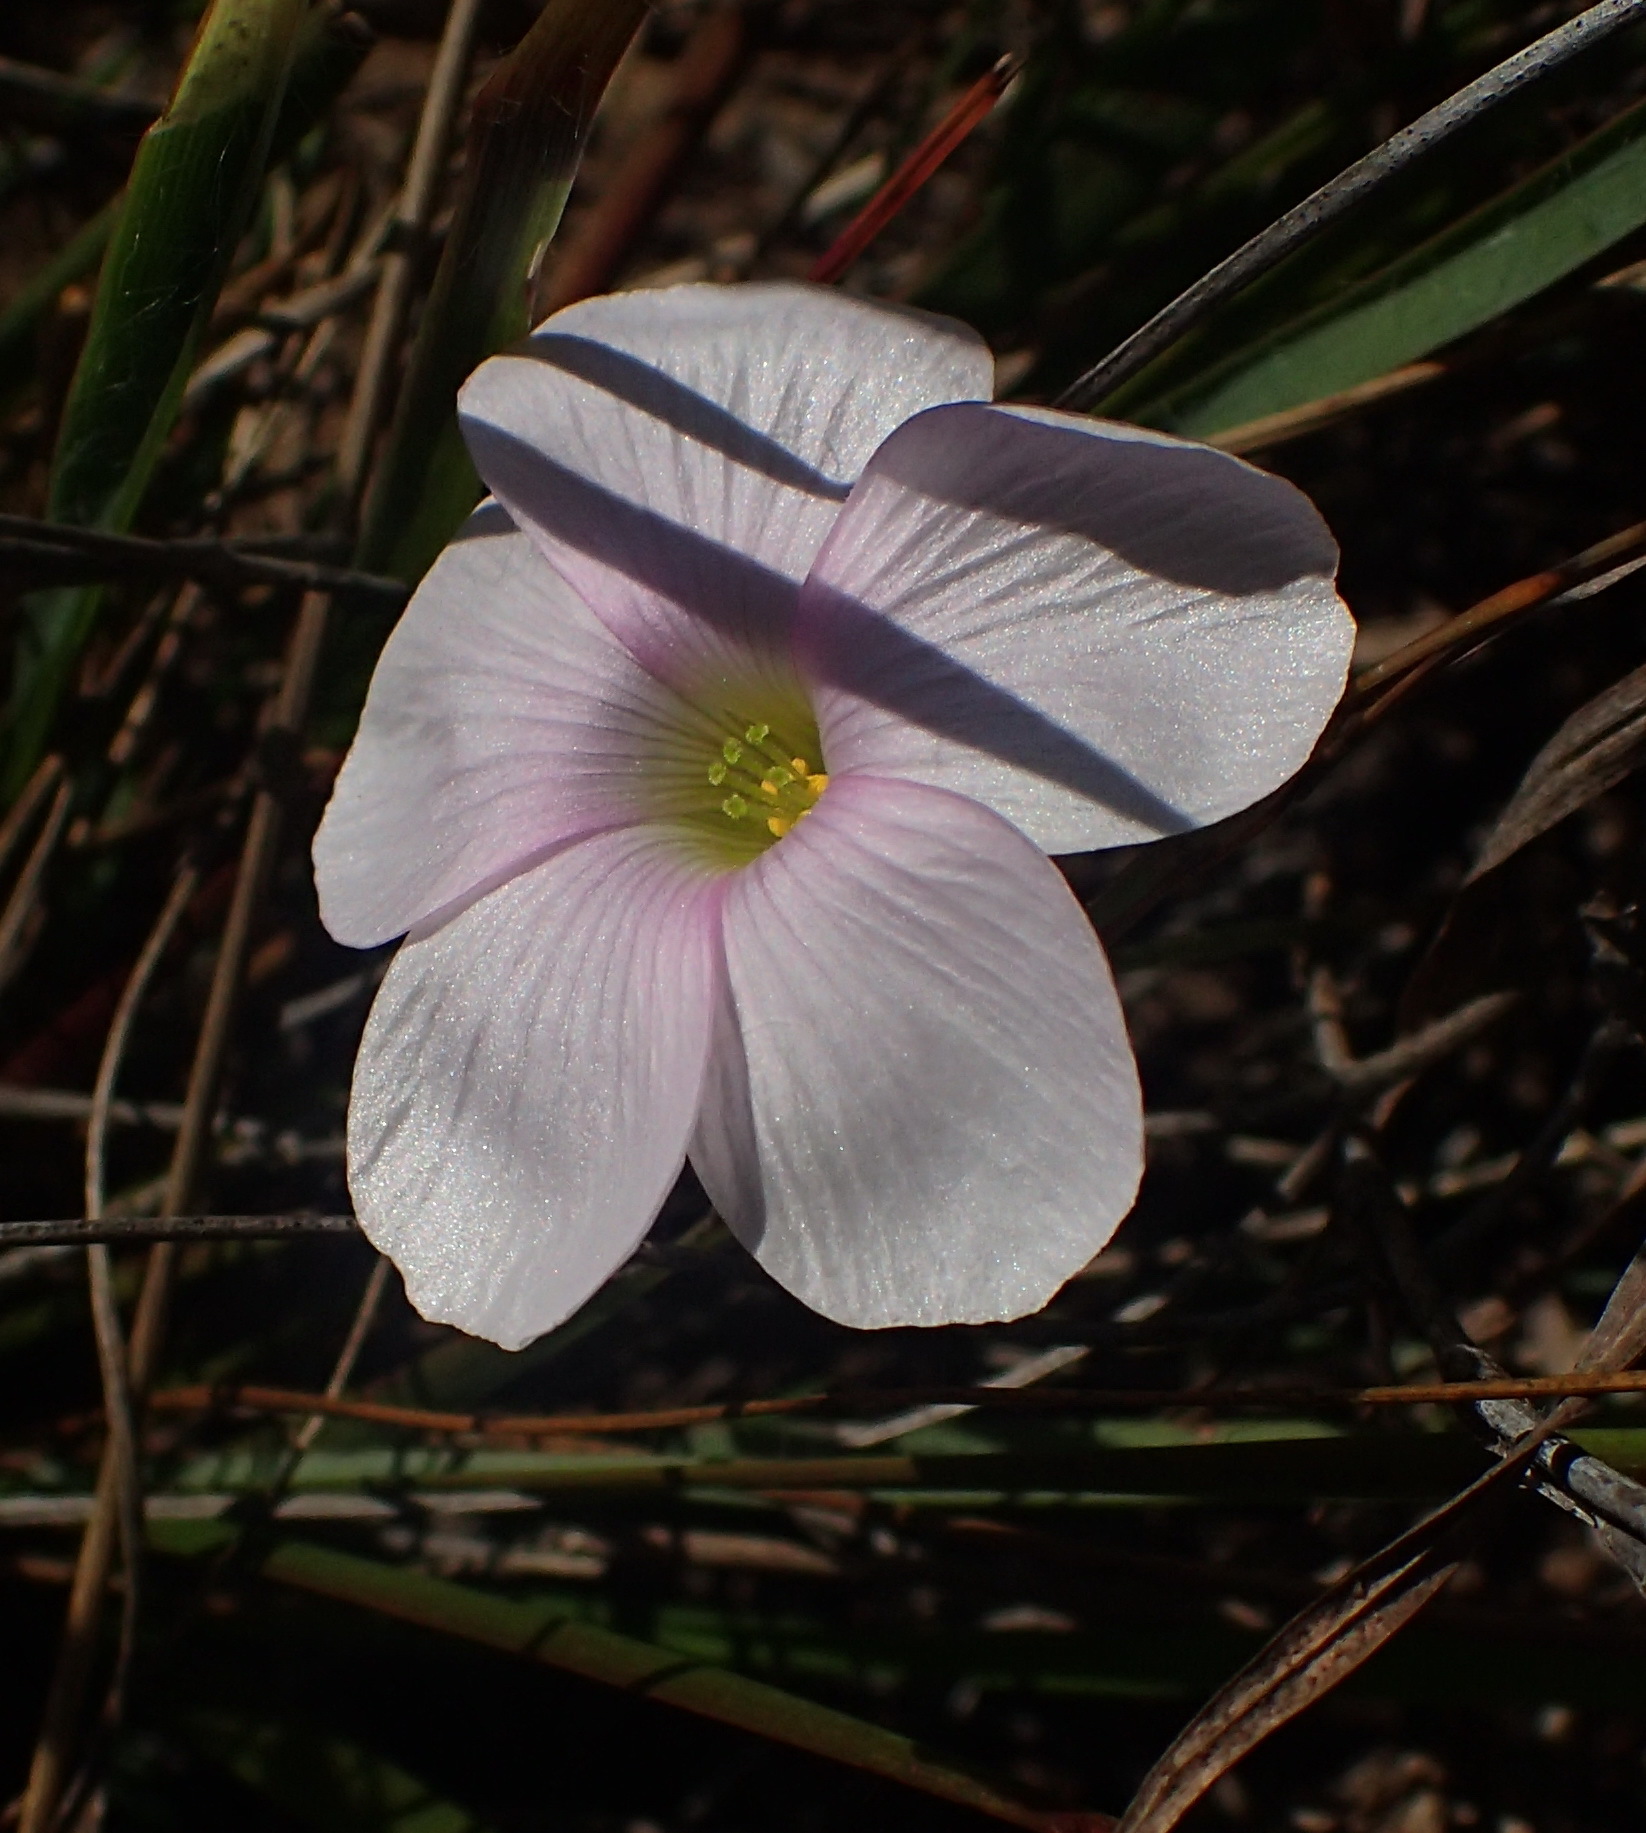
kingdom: Plantae
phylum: Tracheophyta
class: Magnoliopsida
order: Oxalidales
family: Oxalidaceae
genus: Oxalis
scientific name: Oxalis smithiana
